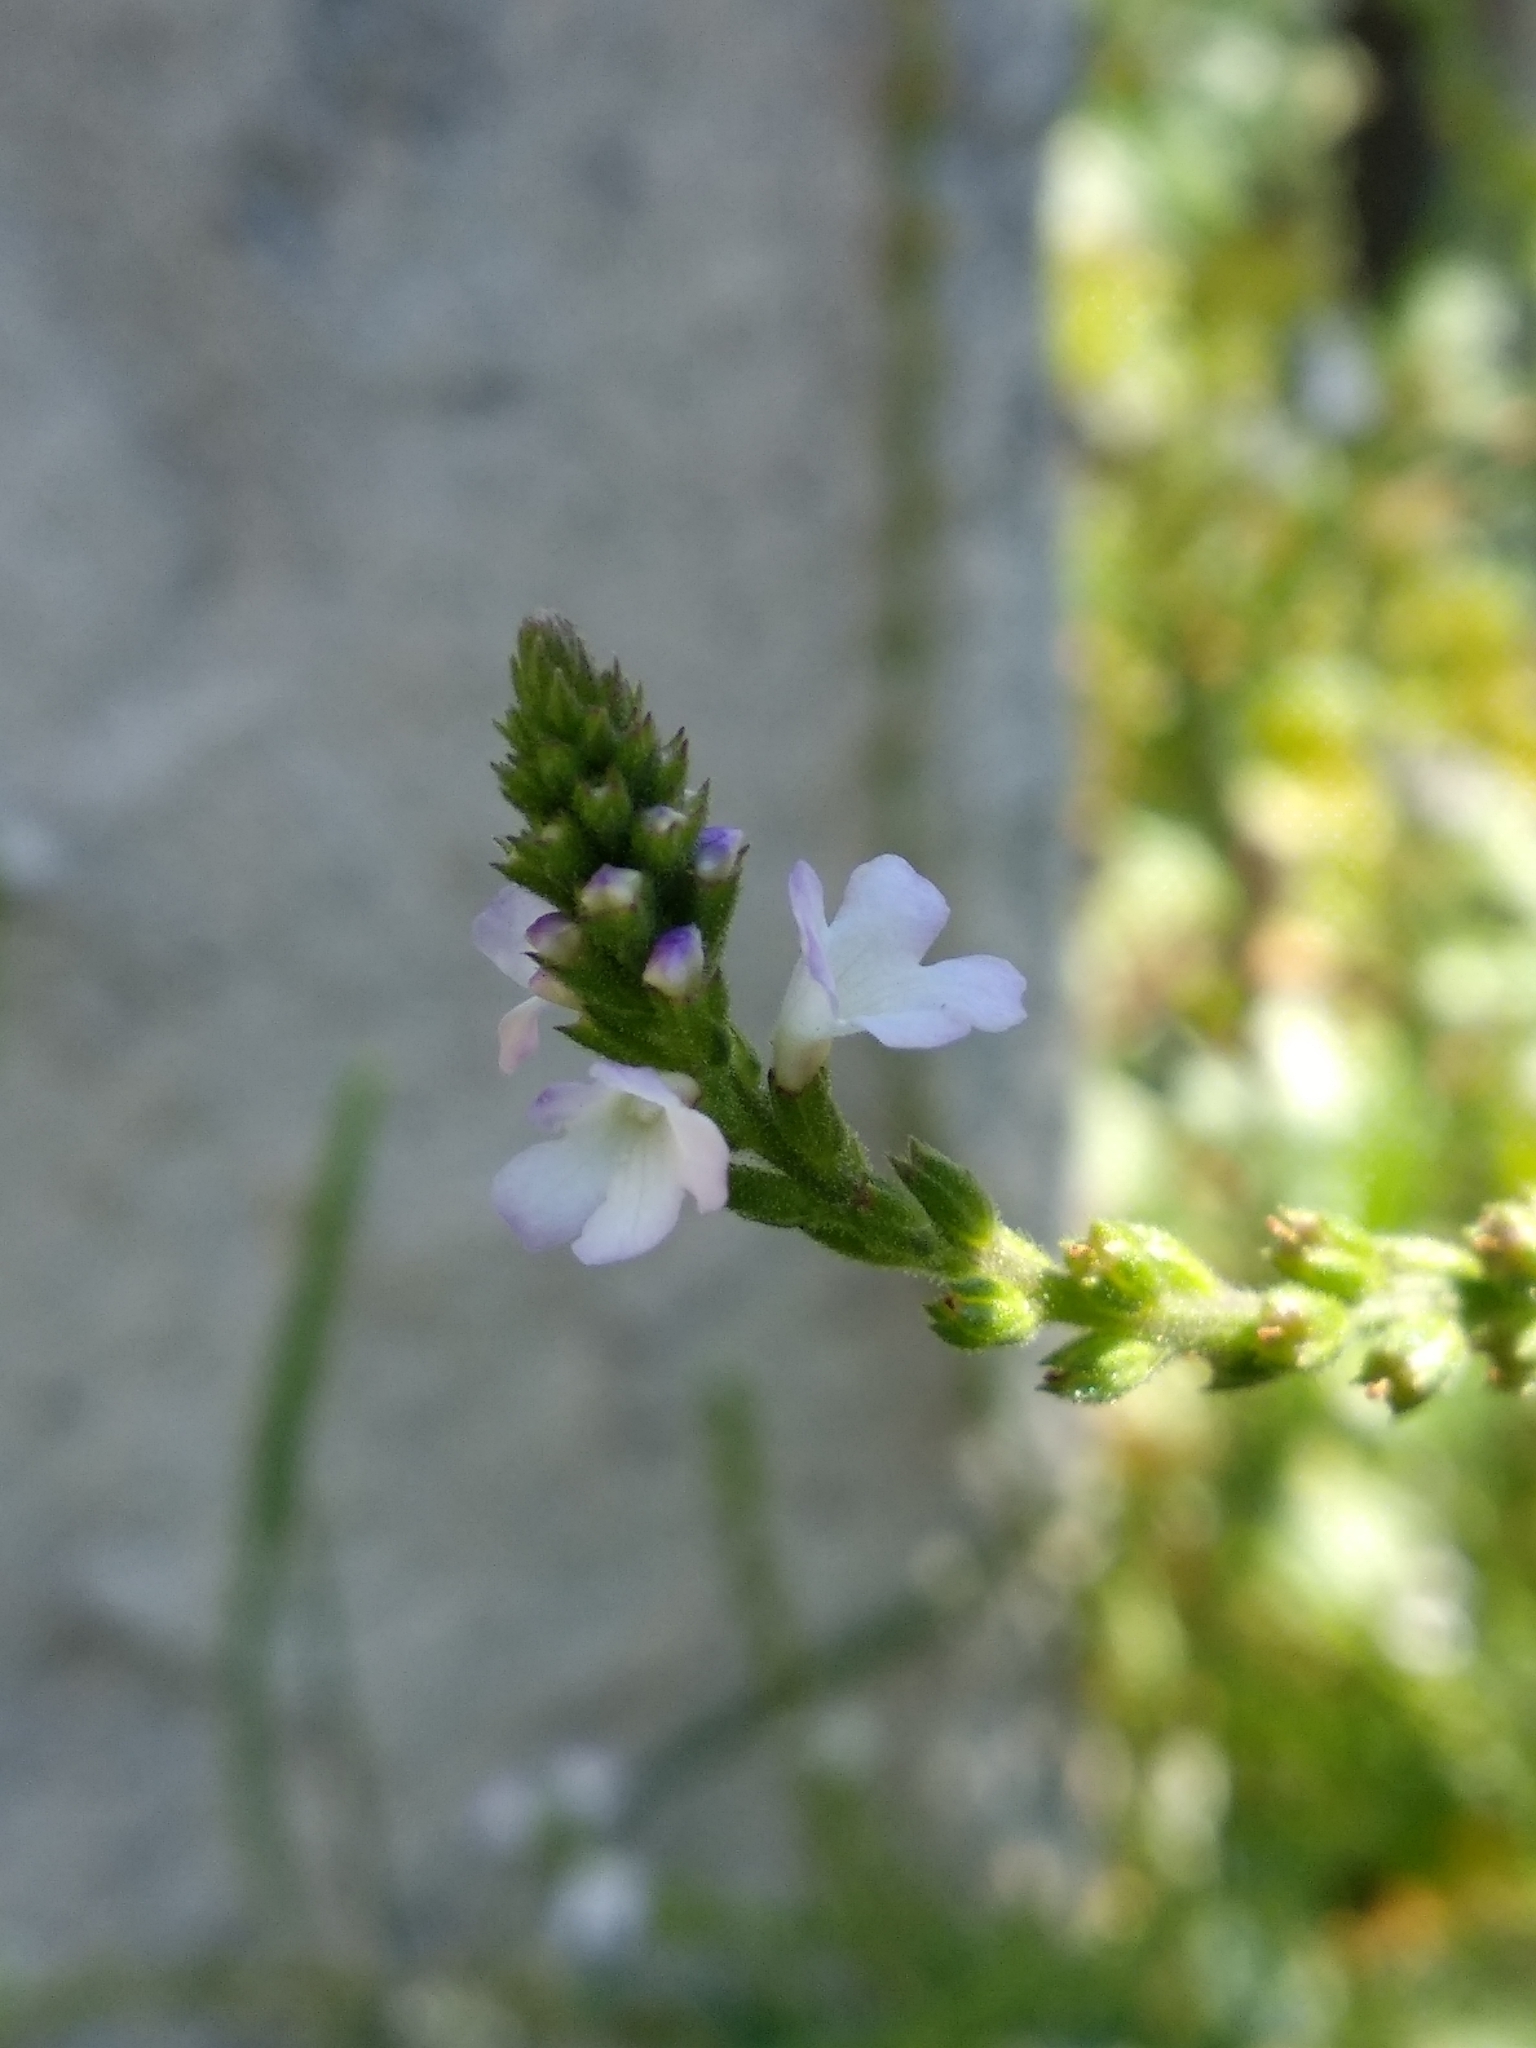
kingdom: Plantae
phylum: Tracheophyta
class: Magnoliopsida
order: Lamiales
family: Verbenaceae
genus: Verbena
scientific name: Verbena officinalis
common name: Vervain
